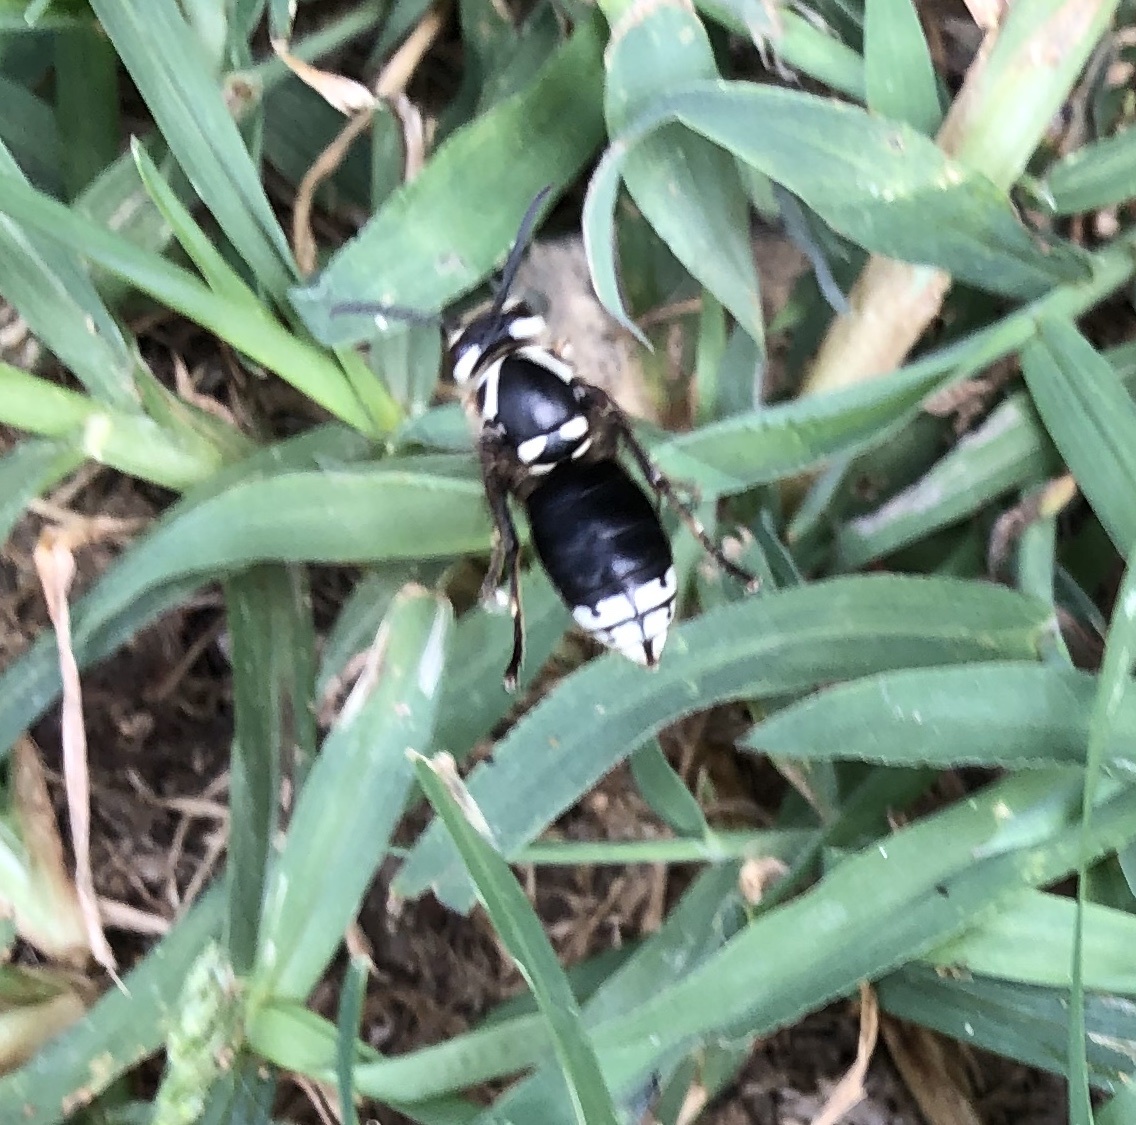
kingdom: Animalia
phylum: Arthropoda
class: Insecta
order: Hymenoptera
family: Vespidae
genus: Dolichovespula
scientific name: Dolichovespula maculata
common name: Bald-faced hornet
